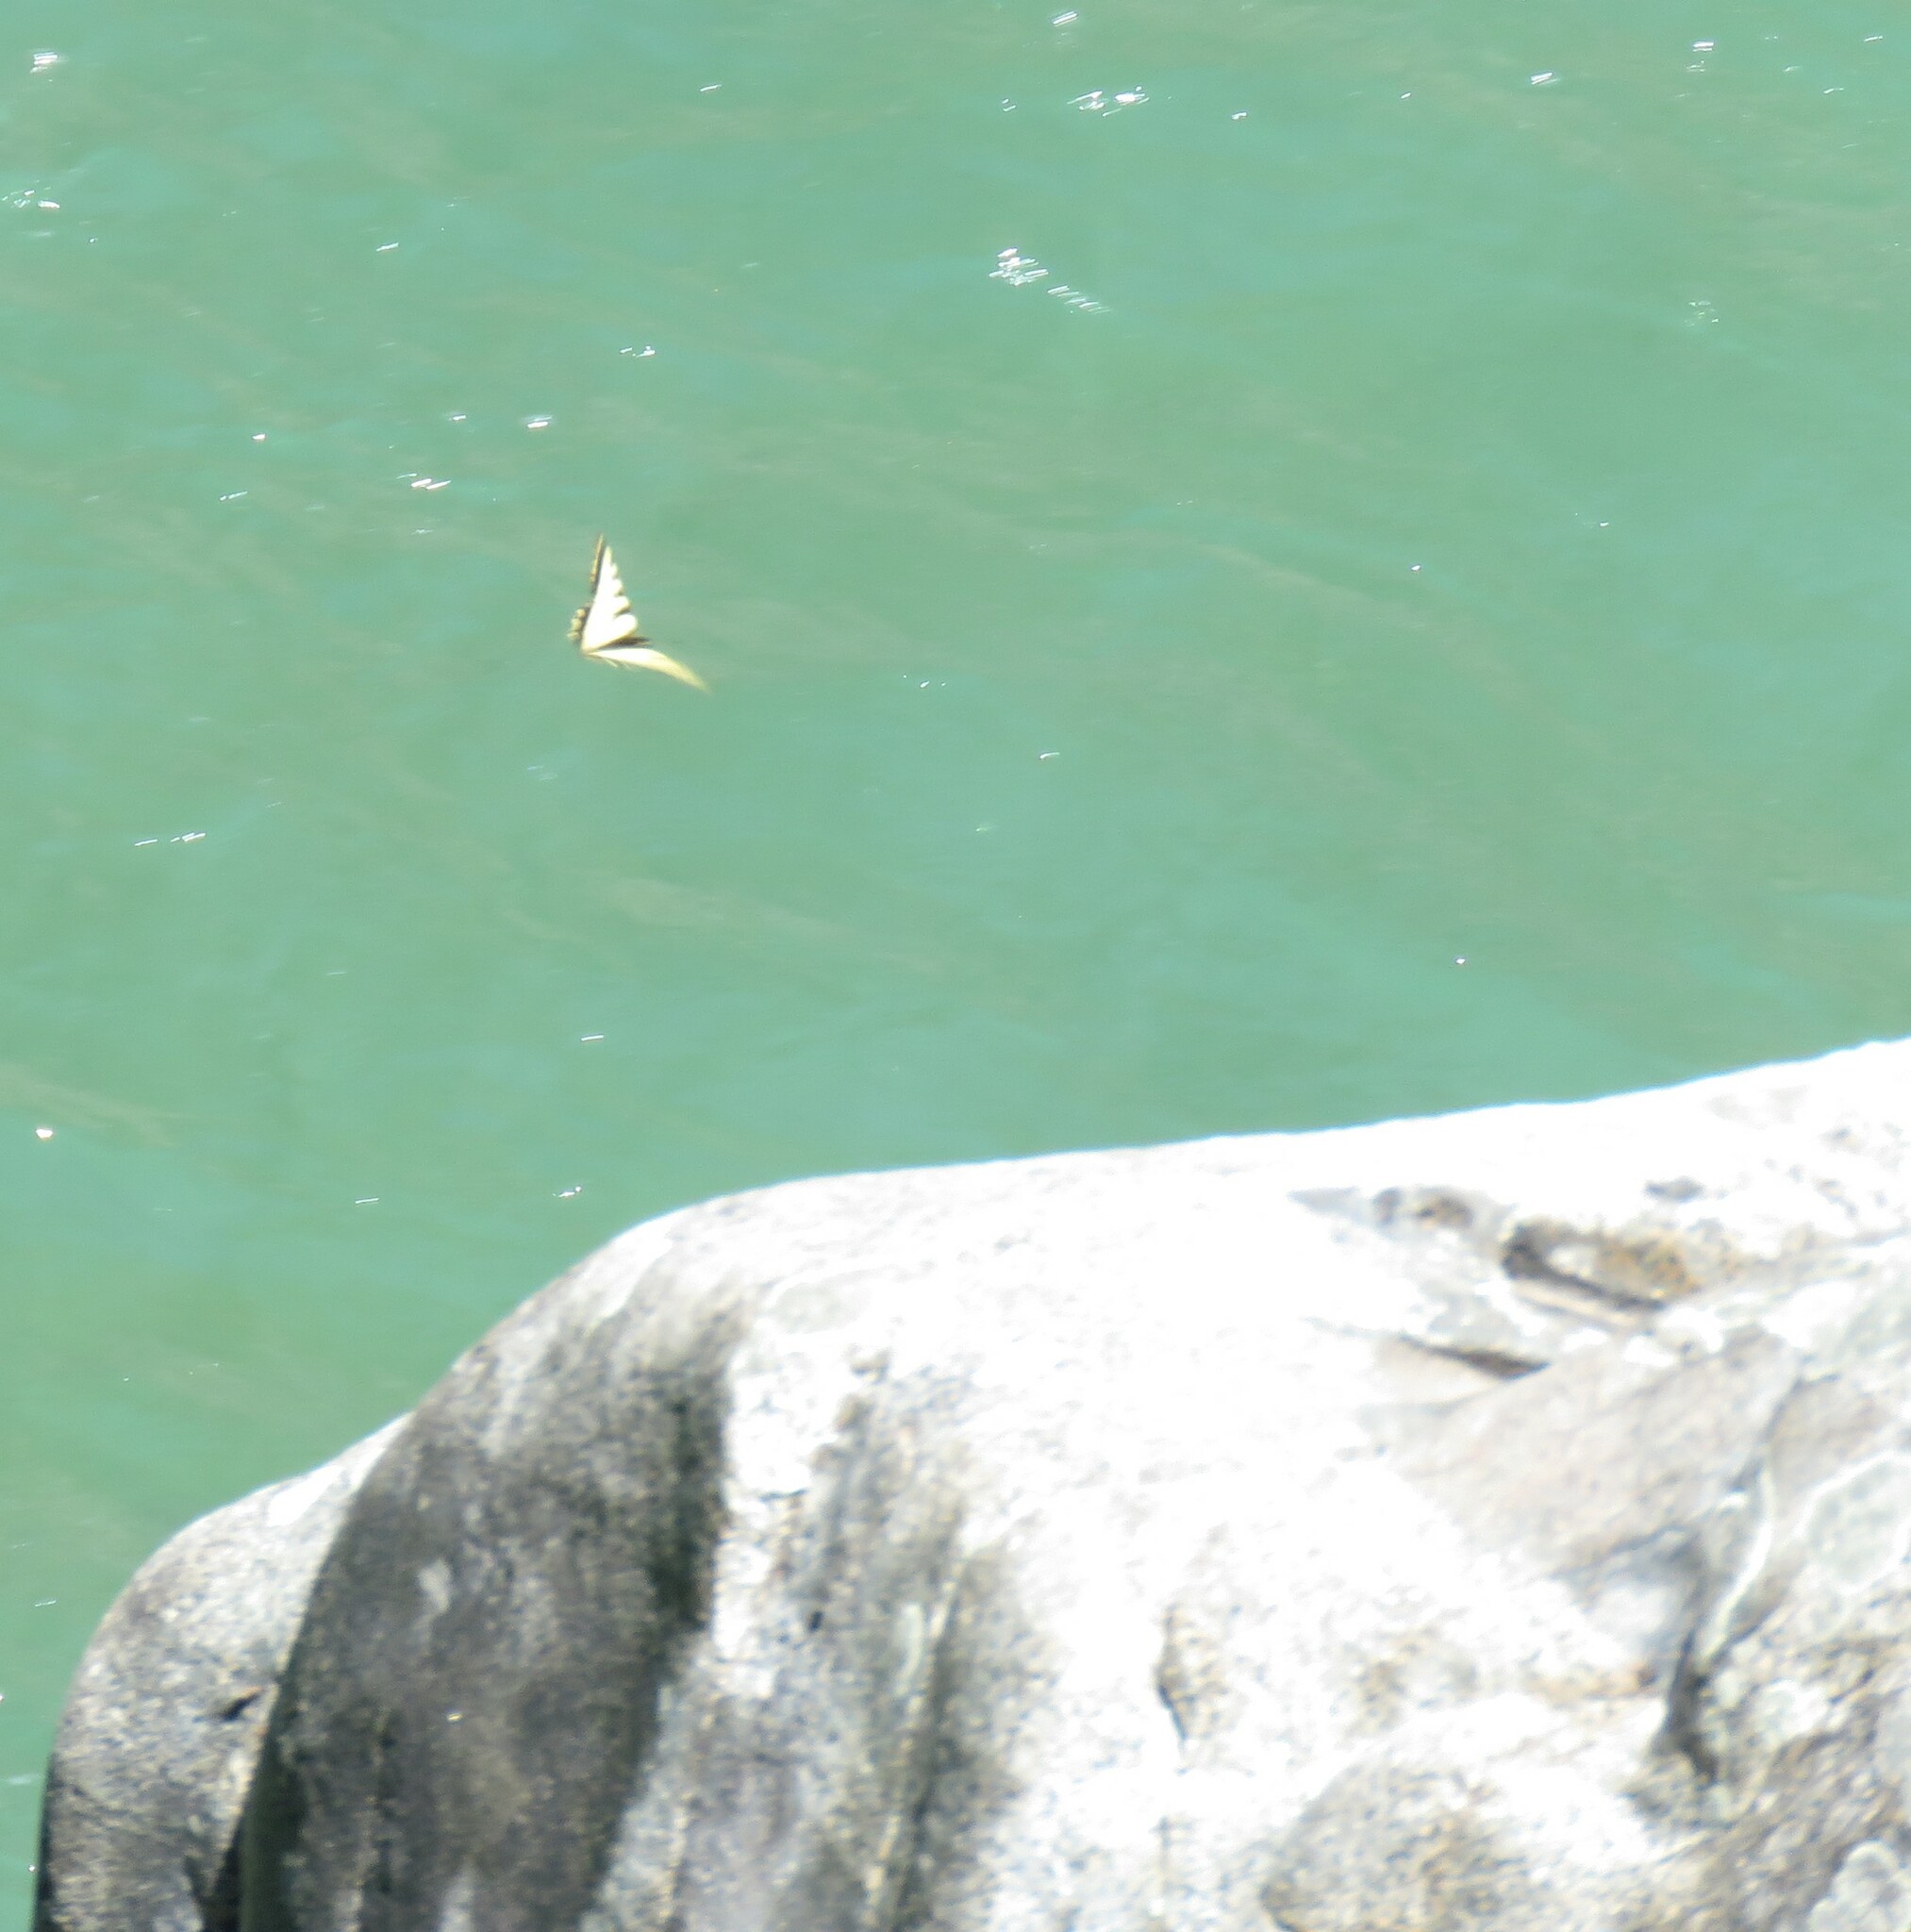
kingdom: Animalia
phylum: Arthropoda
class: Insecta
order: Lepidoptera
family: Papilionidae
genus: Papilio
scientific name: Papilio rutulus
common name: Western tiger swallowtail
